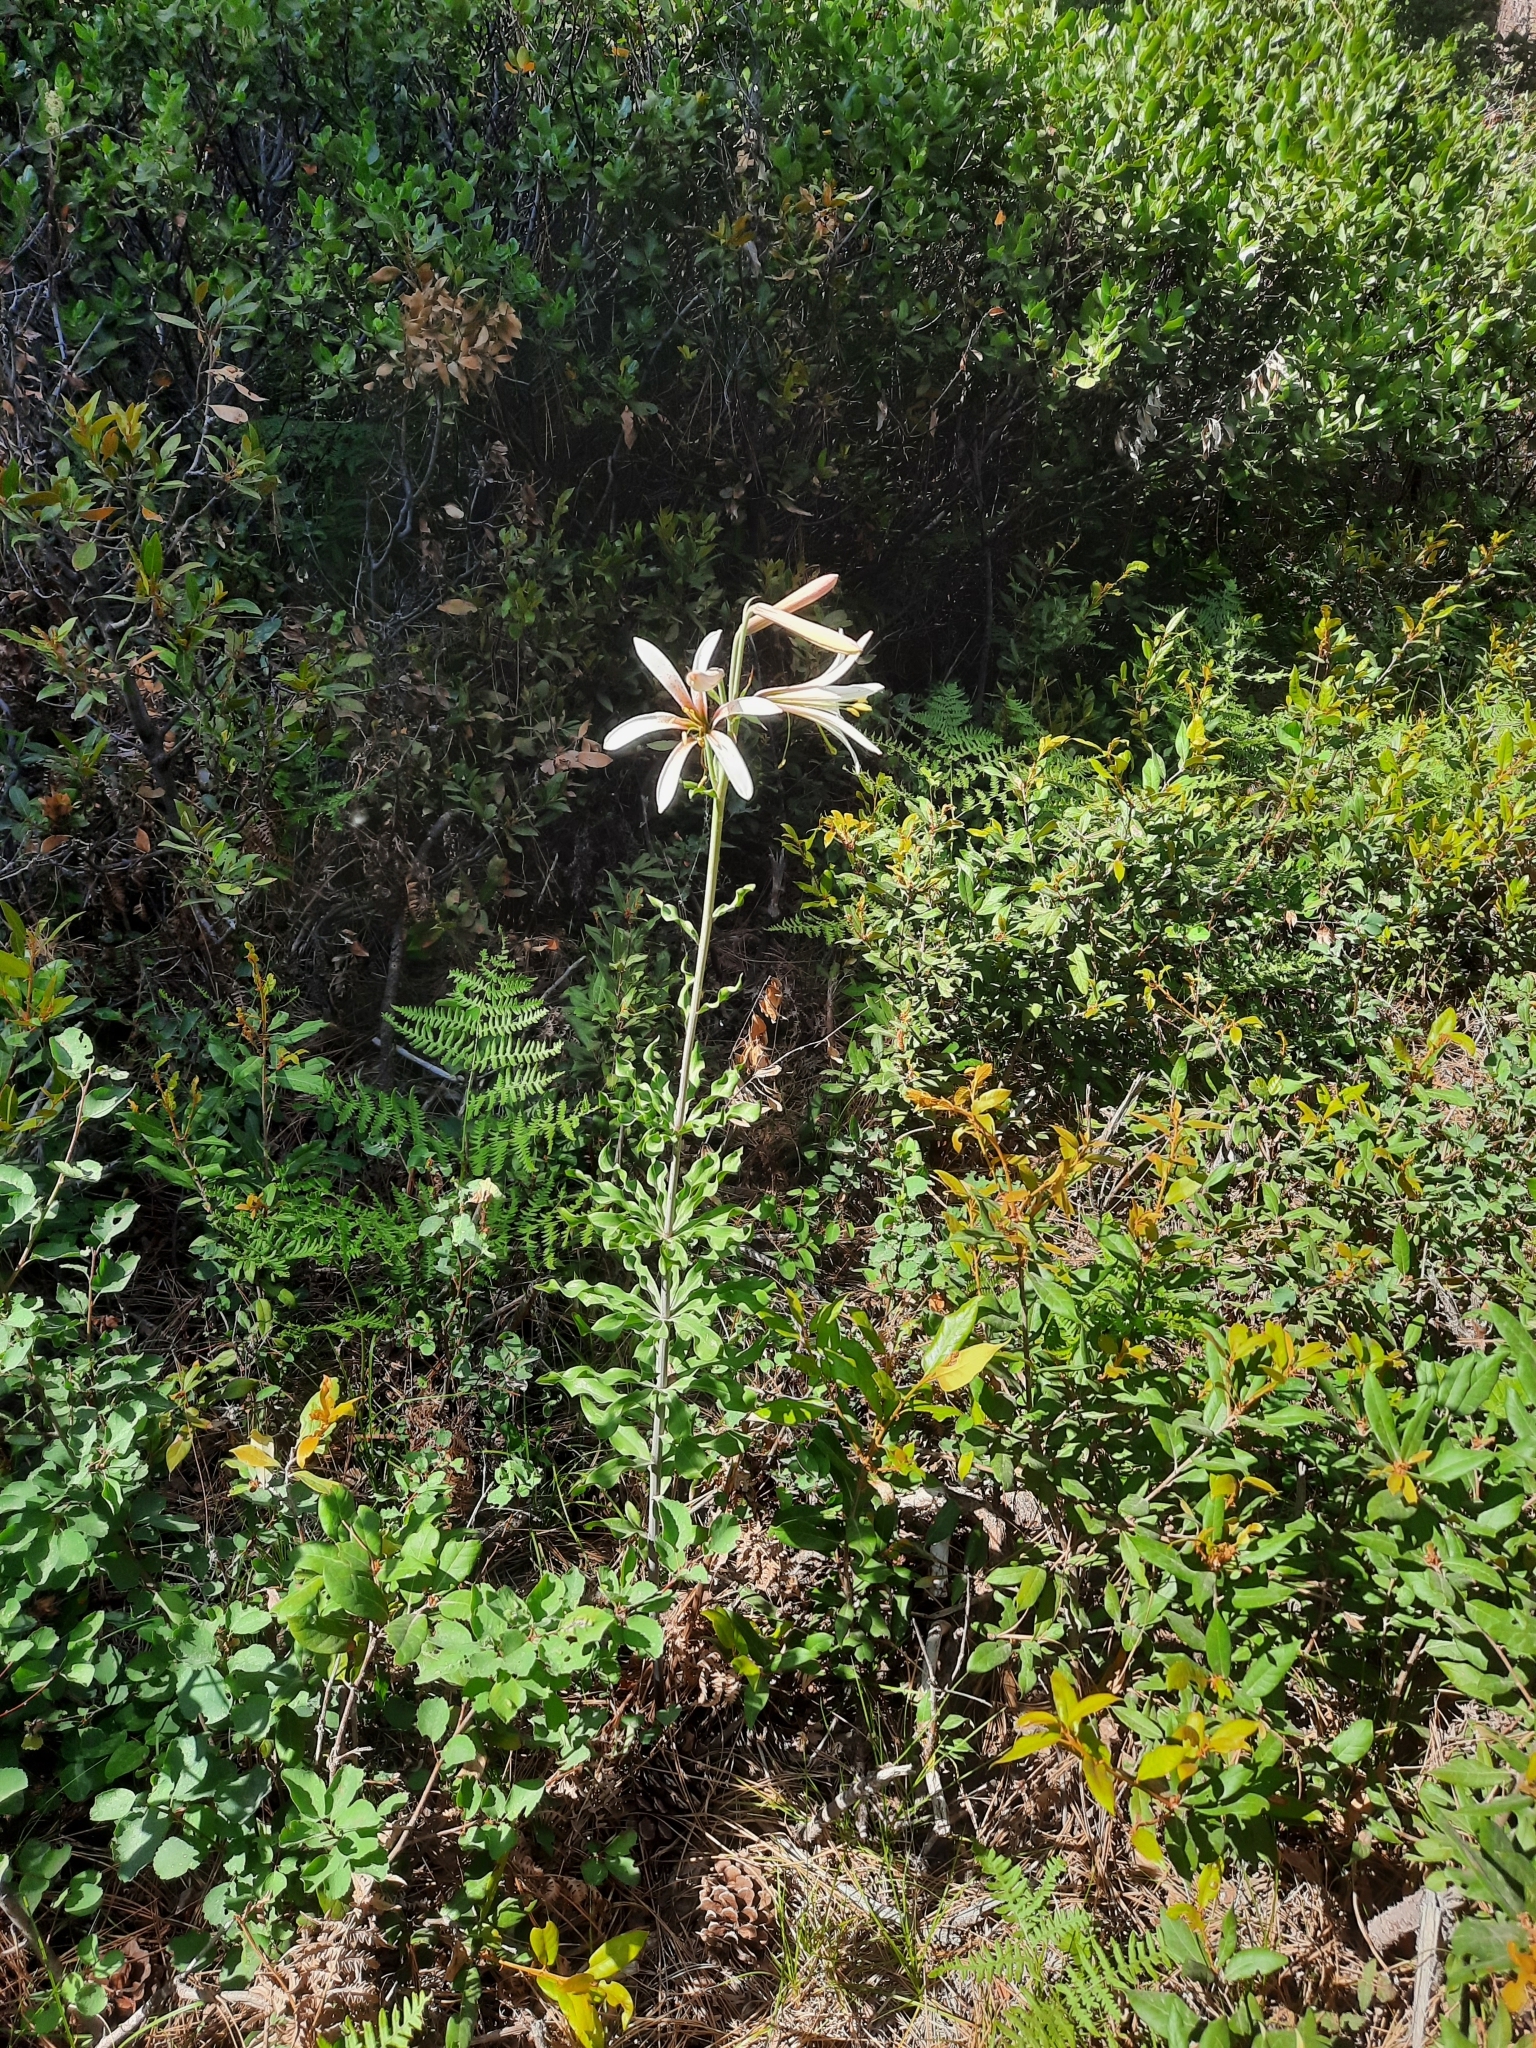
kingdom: Plantae
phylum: Tracheophyta
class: Liliopsida
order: Liliales
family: Liliaceae
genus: Lilium
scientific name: Lilium washingtonianum
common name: Washington lily
